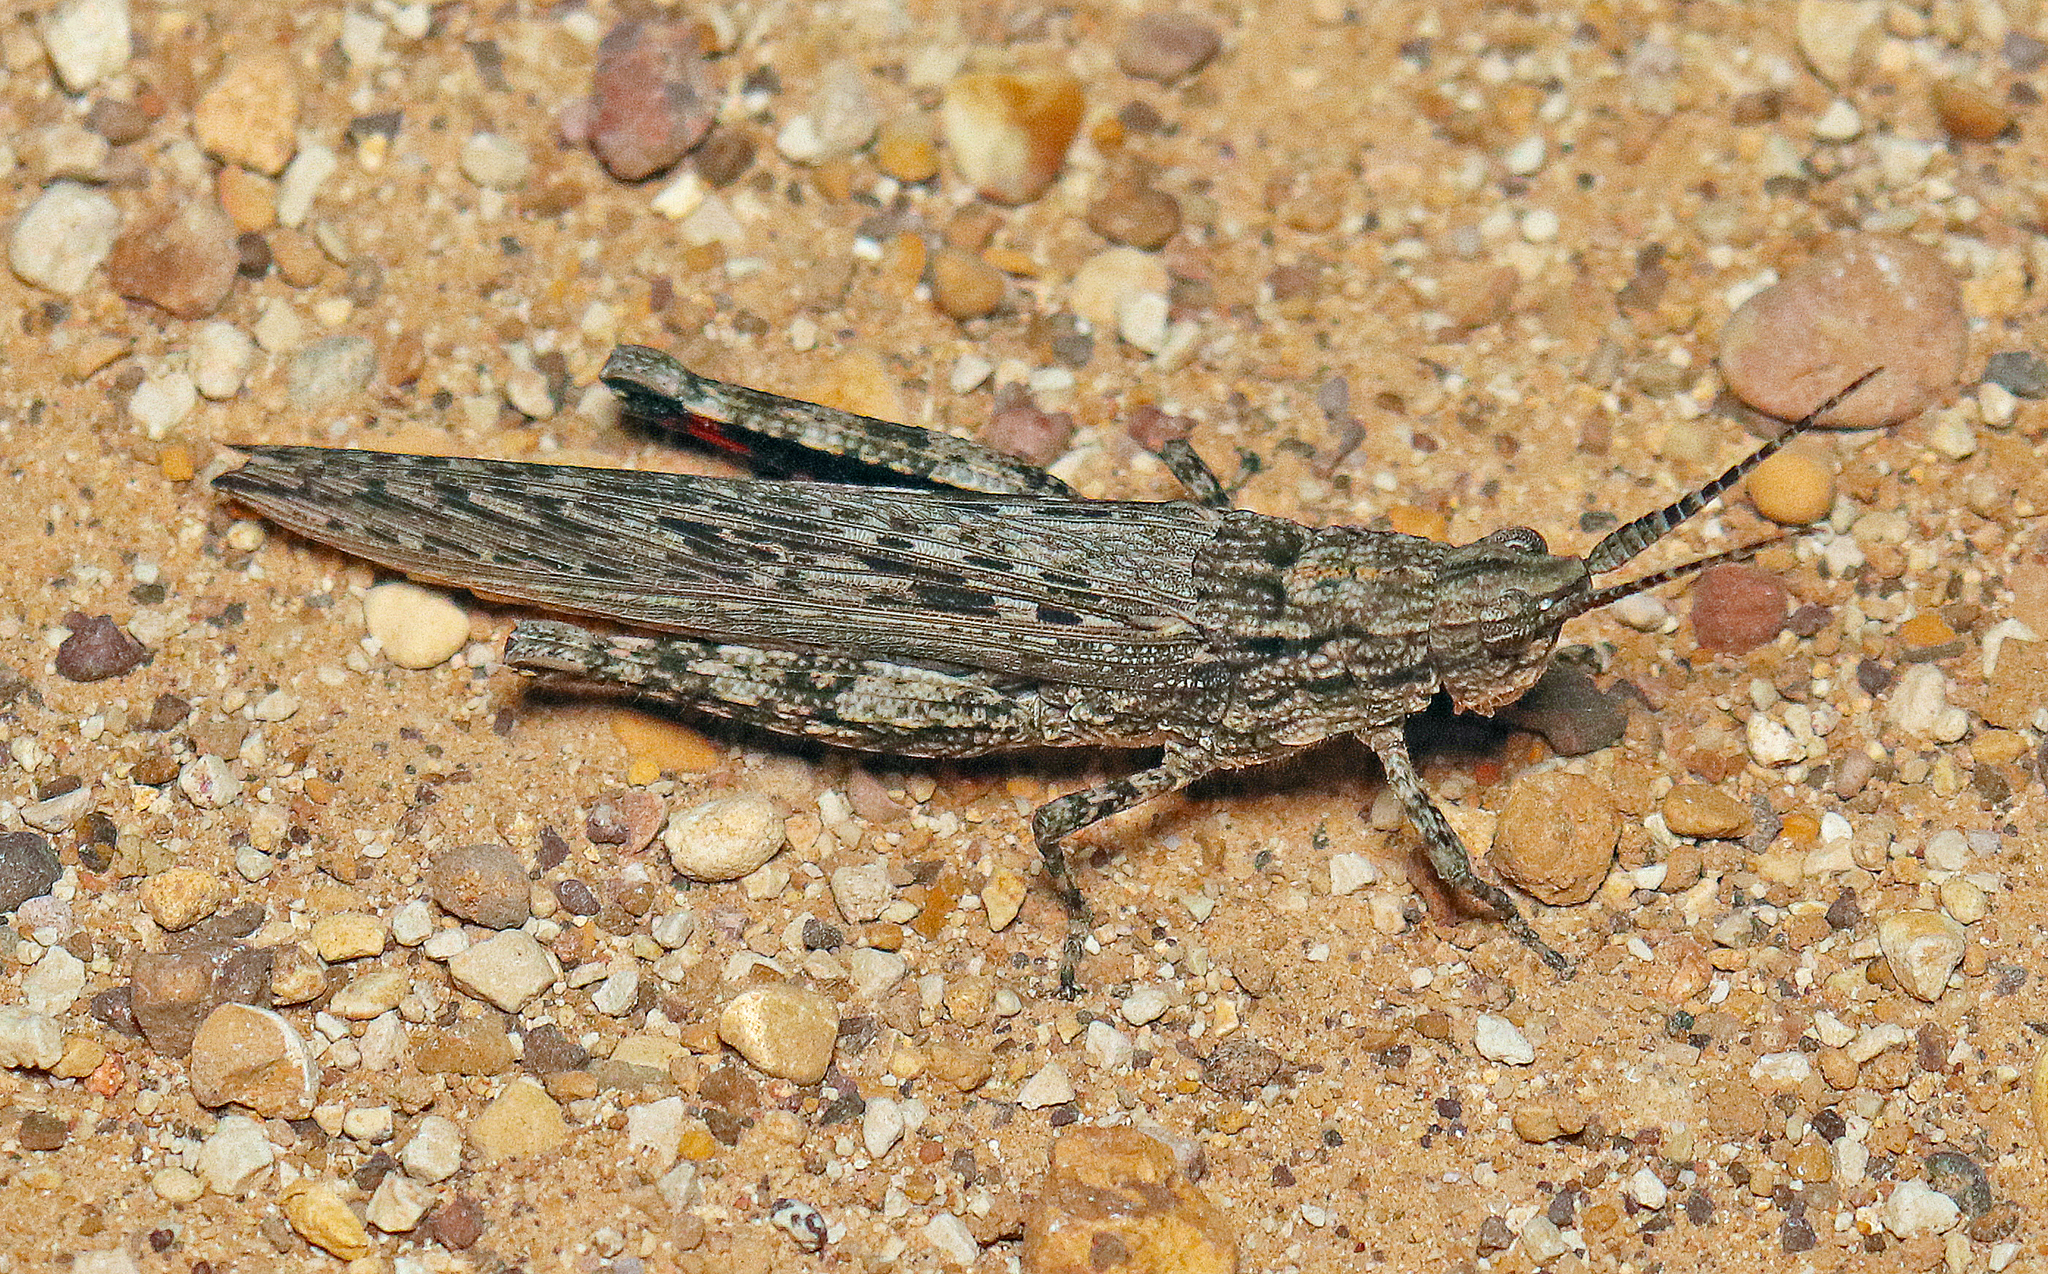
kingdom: Animalia
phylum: Arthropoda
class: Insecta
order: Orthoptera
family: Acrididae
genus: Coryphistes
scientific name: Coryphistes ruricola
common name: Bark-mimicking grasshopper
